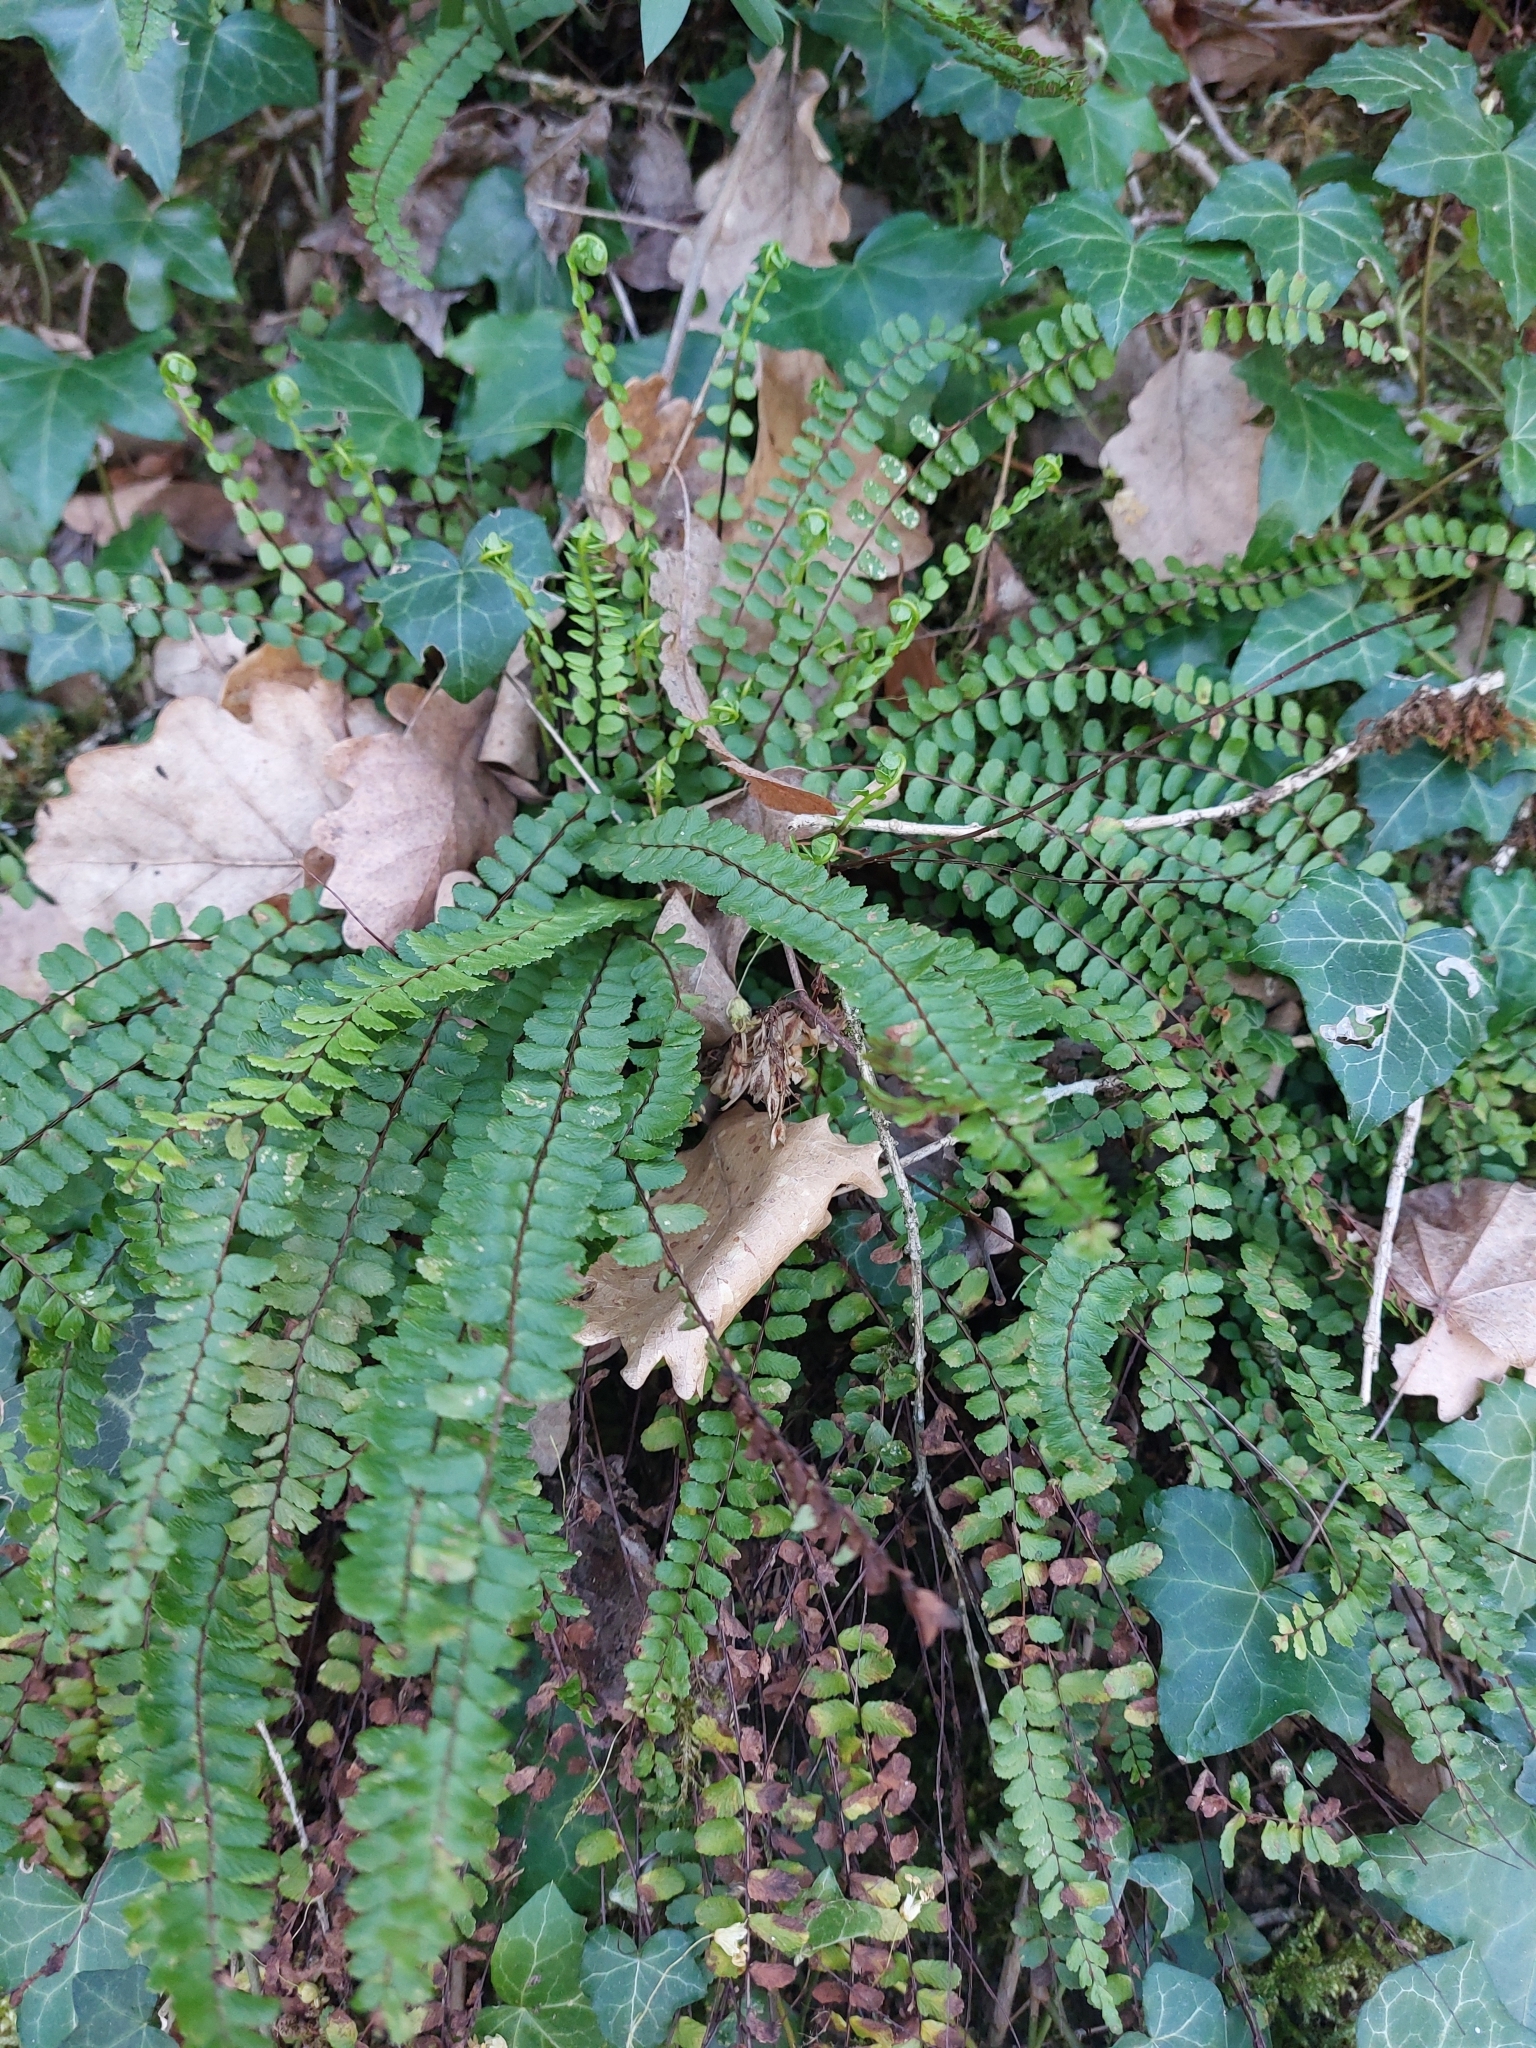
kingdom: Plantae
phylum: Tracheophyta
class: Polypodiopsida
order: Polypodiales
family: Aspleniaceae
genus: Asplenium
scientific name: Asplenium trichomanes
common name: Maidenhair spleenwort
